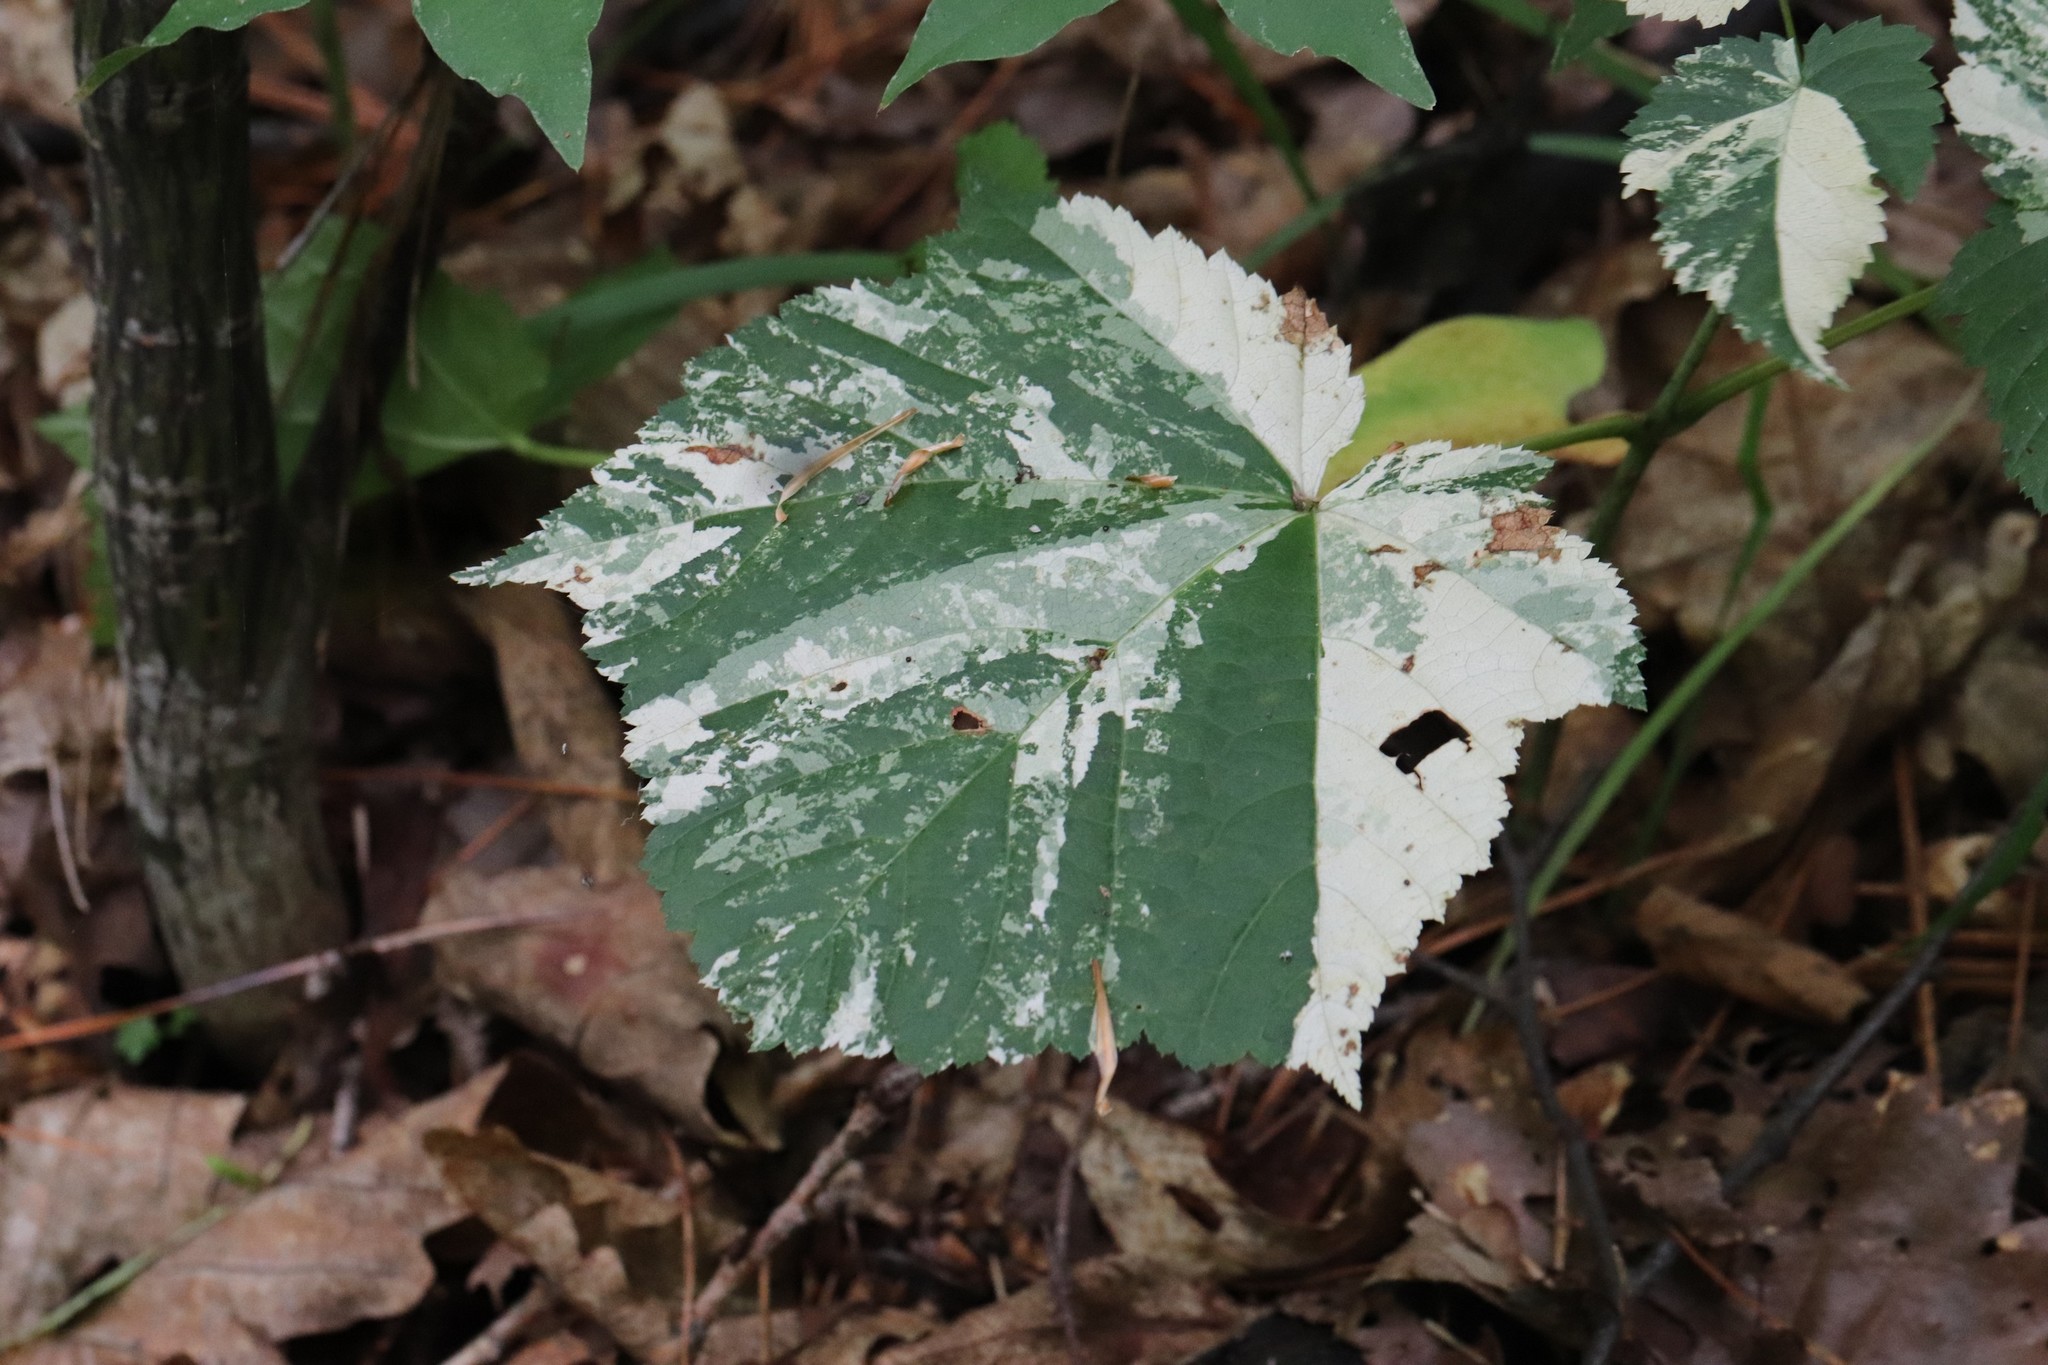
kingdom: Plantae
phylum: Tracheophyta
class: Magnoliopsida
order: Sapindales
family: Sapindaceae
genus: Acer
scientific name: Acer tegmentosum
